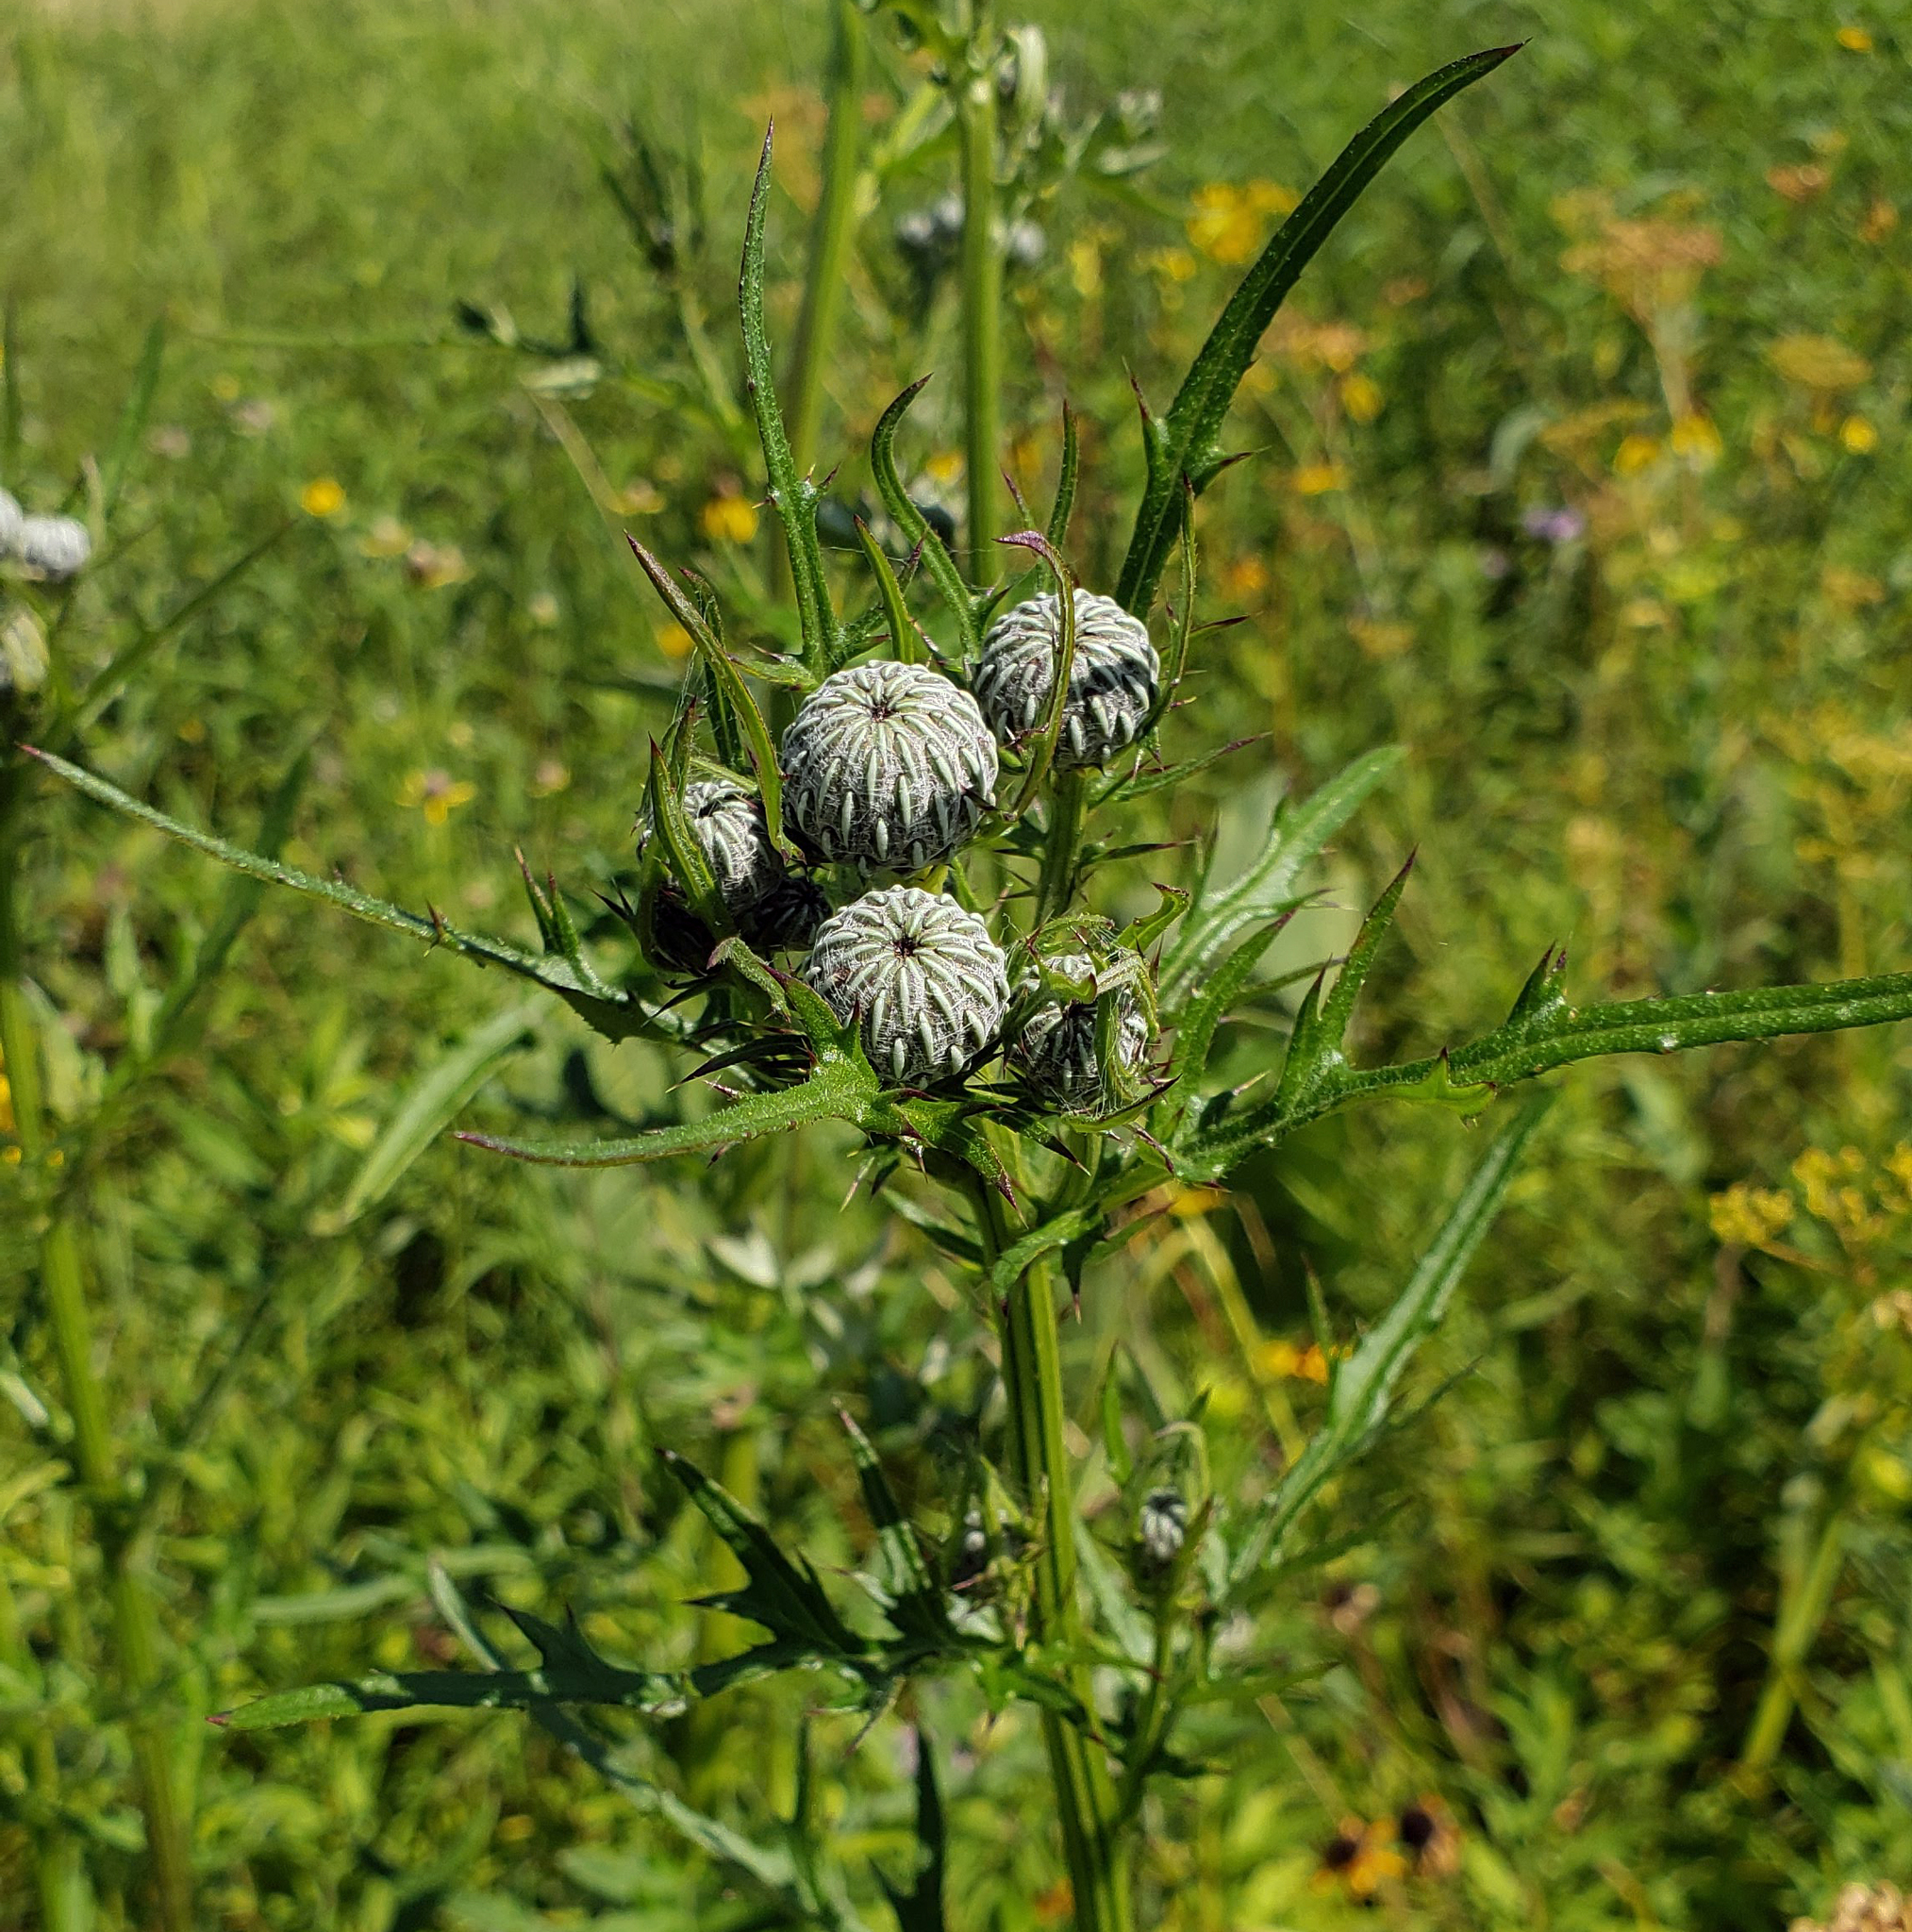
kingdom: Plantae
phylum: Tracheophyta
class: Magnoliopsida
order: Asterales
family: Asteraceae
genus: Cirsium
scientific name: Cirsium muticum
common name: Dunce-nettle
